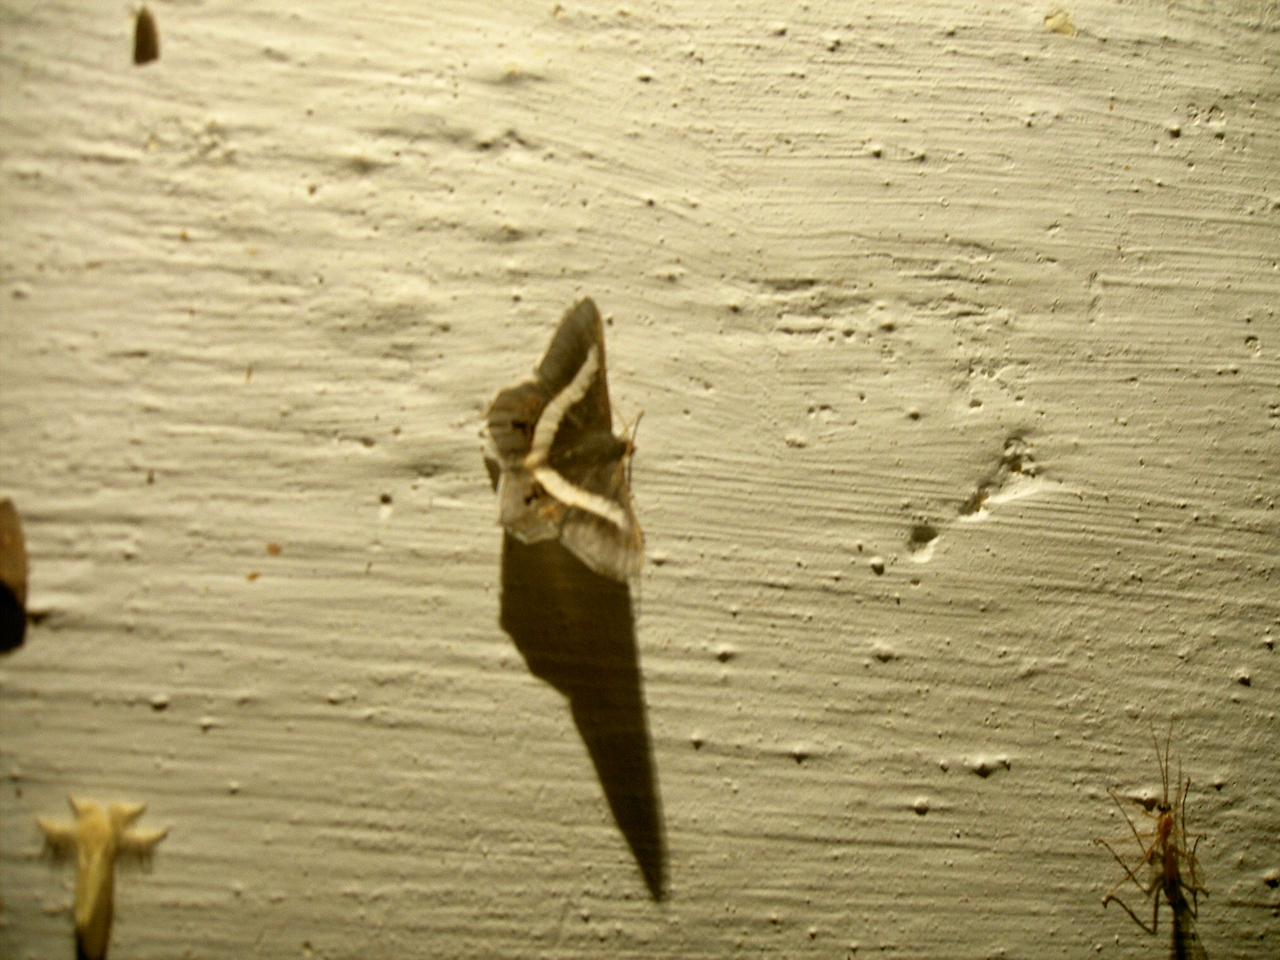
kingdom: Animalia
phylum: Arthropoda
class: Insecta
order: Lepidoptera
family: Geometridae
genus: Chiasmia
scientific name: Chiasmia eleonora
